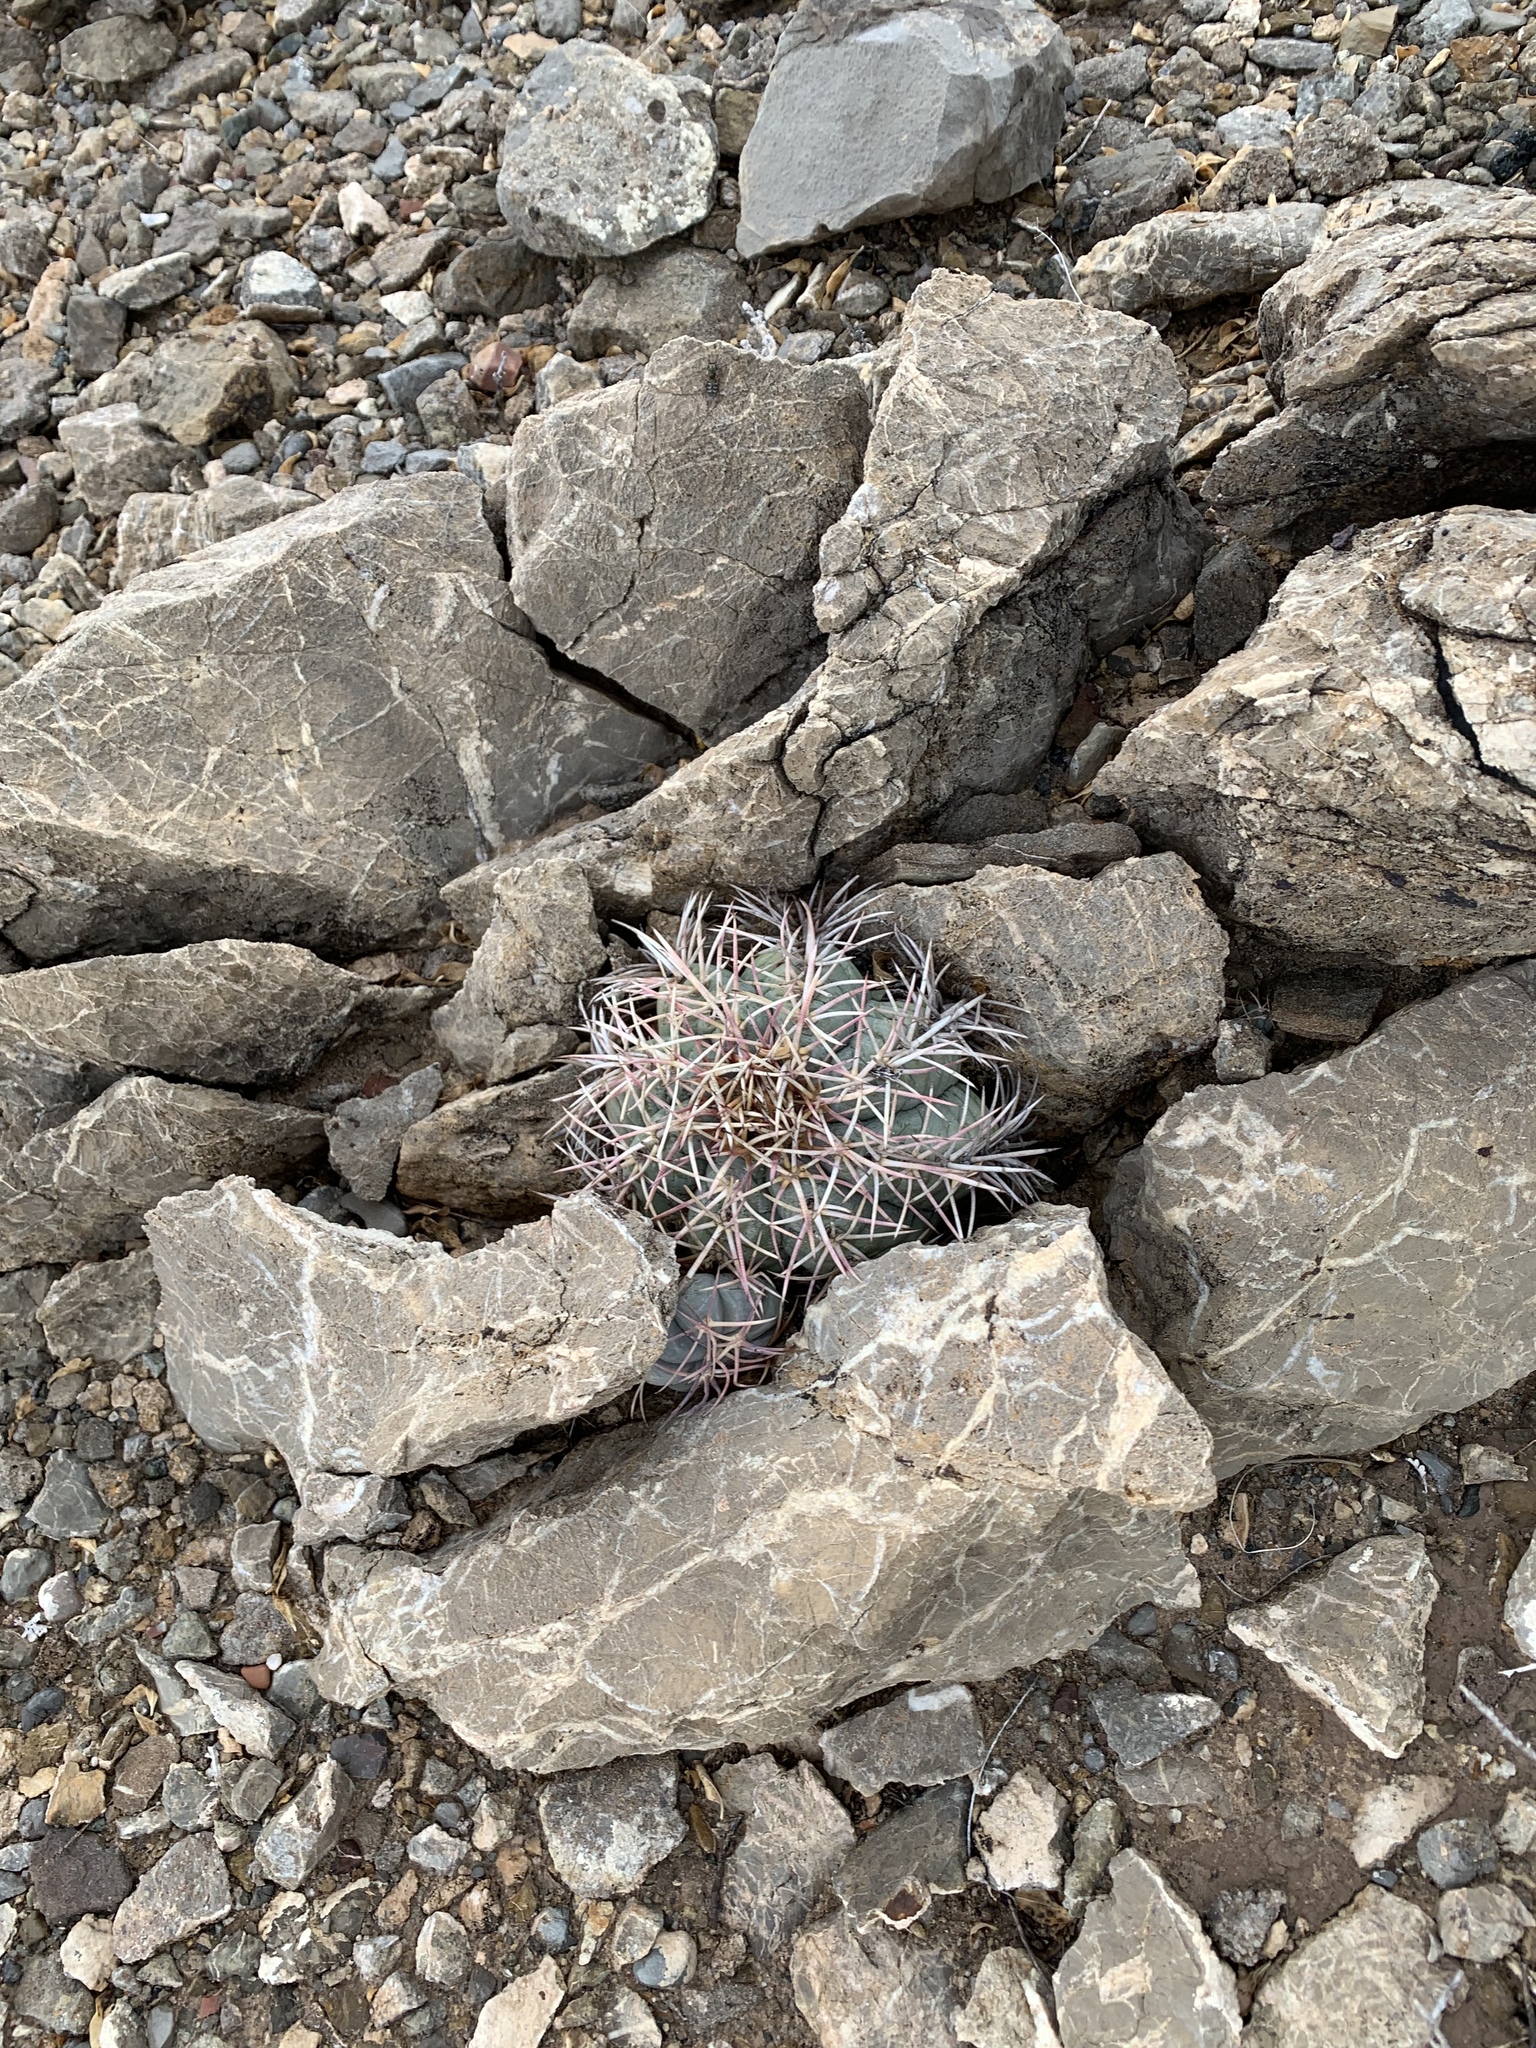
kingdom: Plantae
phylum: Tracheophyta
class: Magnoliopsida
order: Caryophyllales
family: Cactaceae
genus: Echinocactus
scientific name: Echinocactus horizonthalonius
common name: Devilshead
